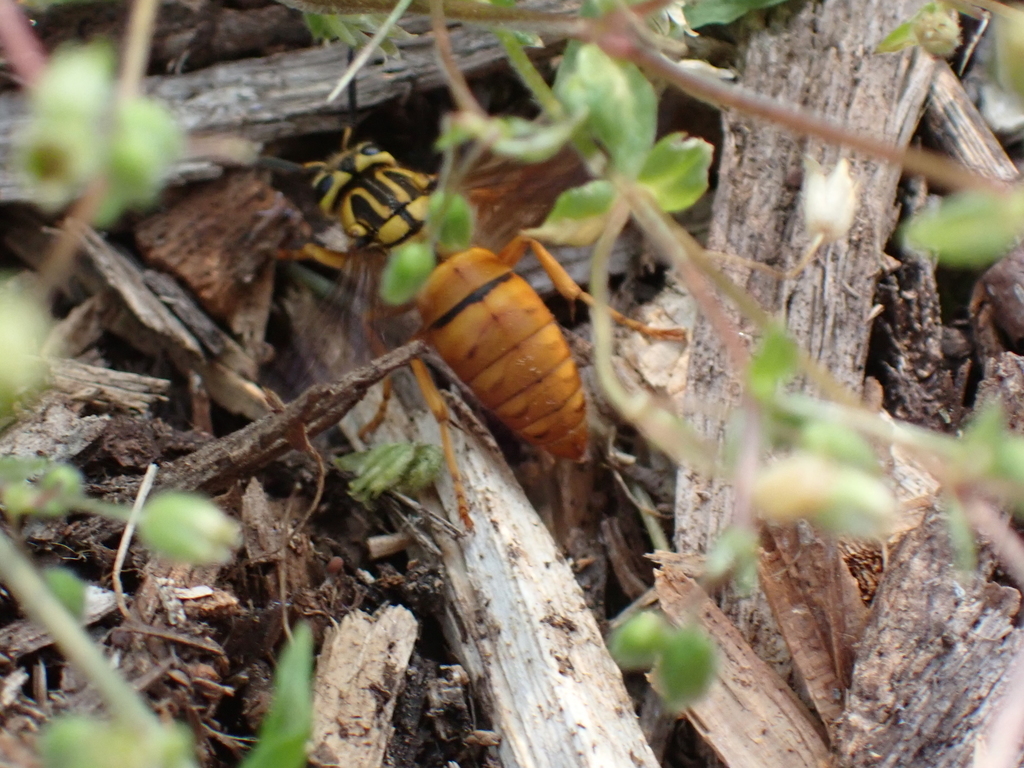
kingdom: Animalia
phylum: Arthropoda
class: Insecta
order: Hymenoptera
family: Vespidae
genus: Vespula
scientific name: Vespula squamosa
